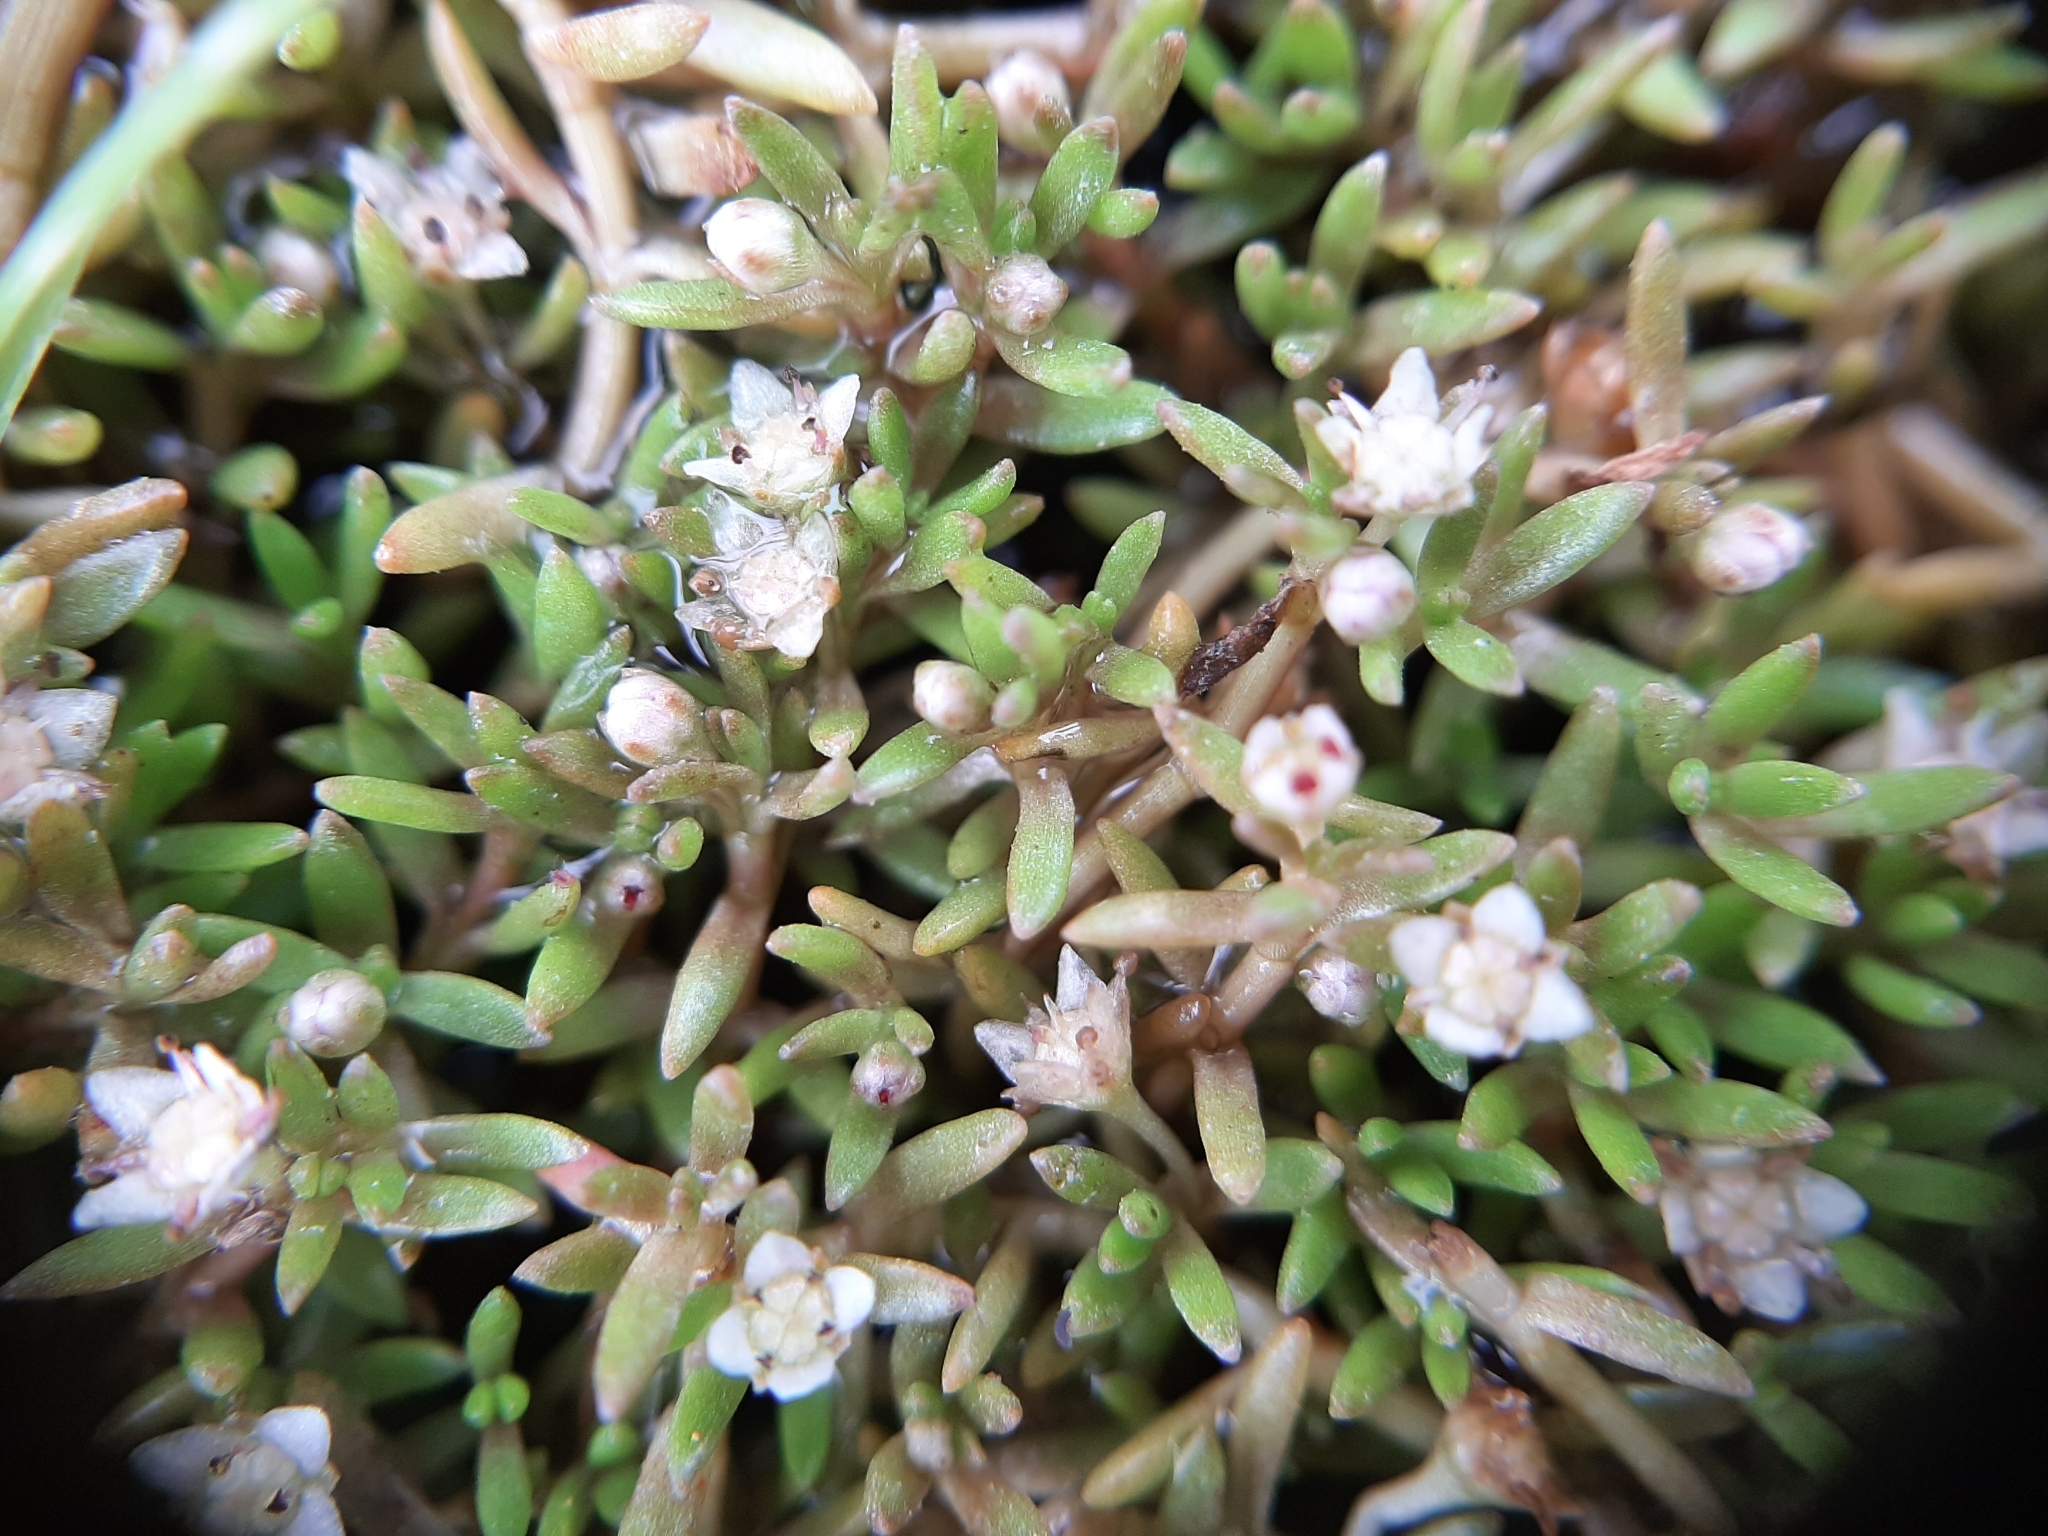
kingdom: Plantae
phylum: Tracheophyta
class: Magnoliopsida
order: Saxifragales
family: Crassulaceae
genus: Crassula
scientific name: Crassula sinclairii
